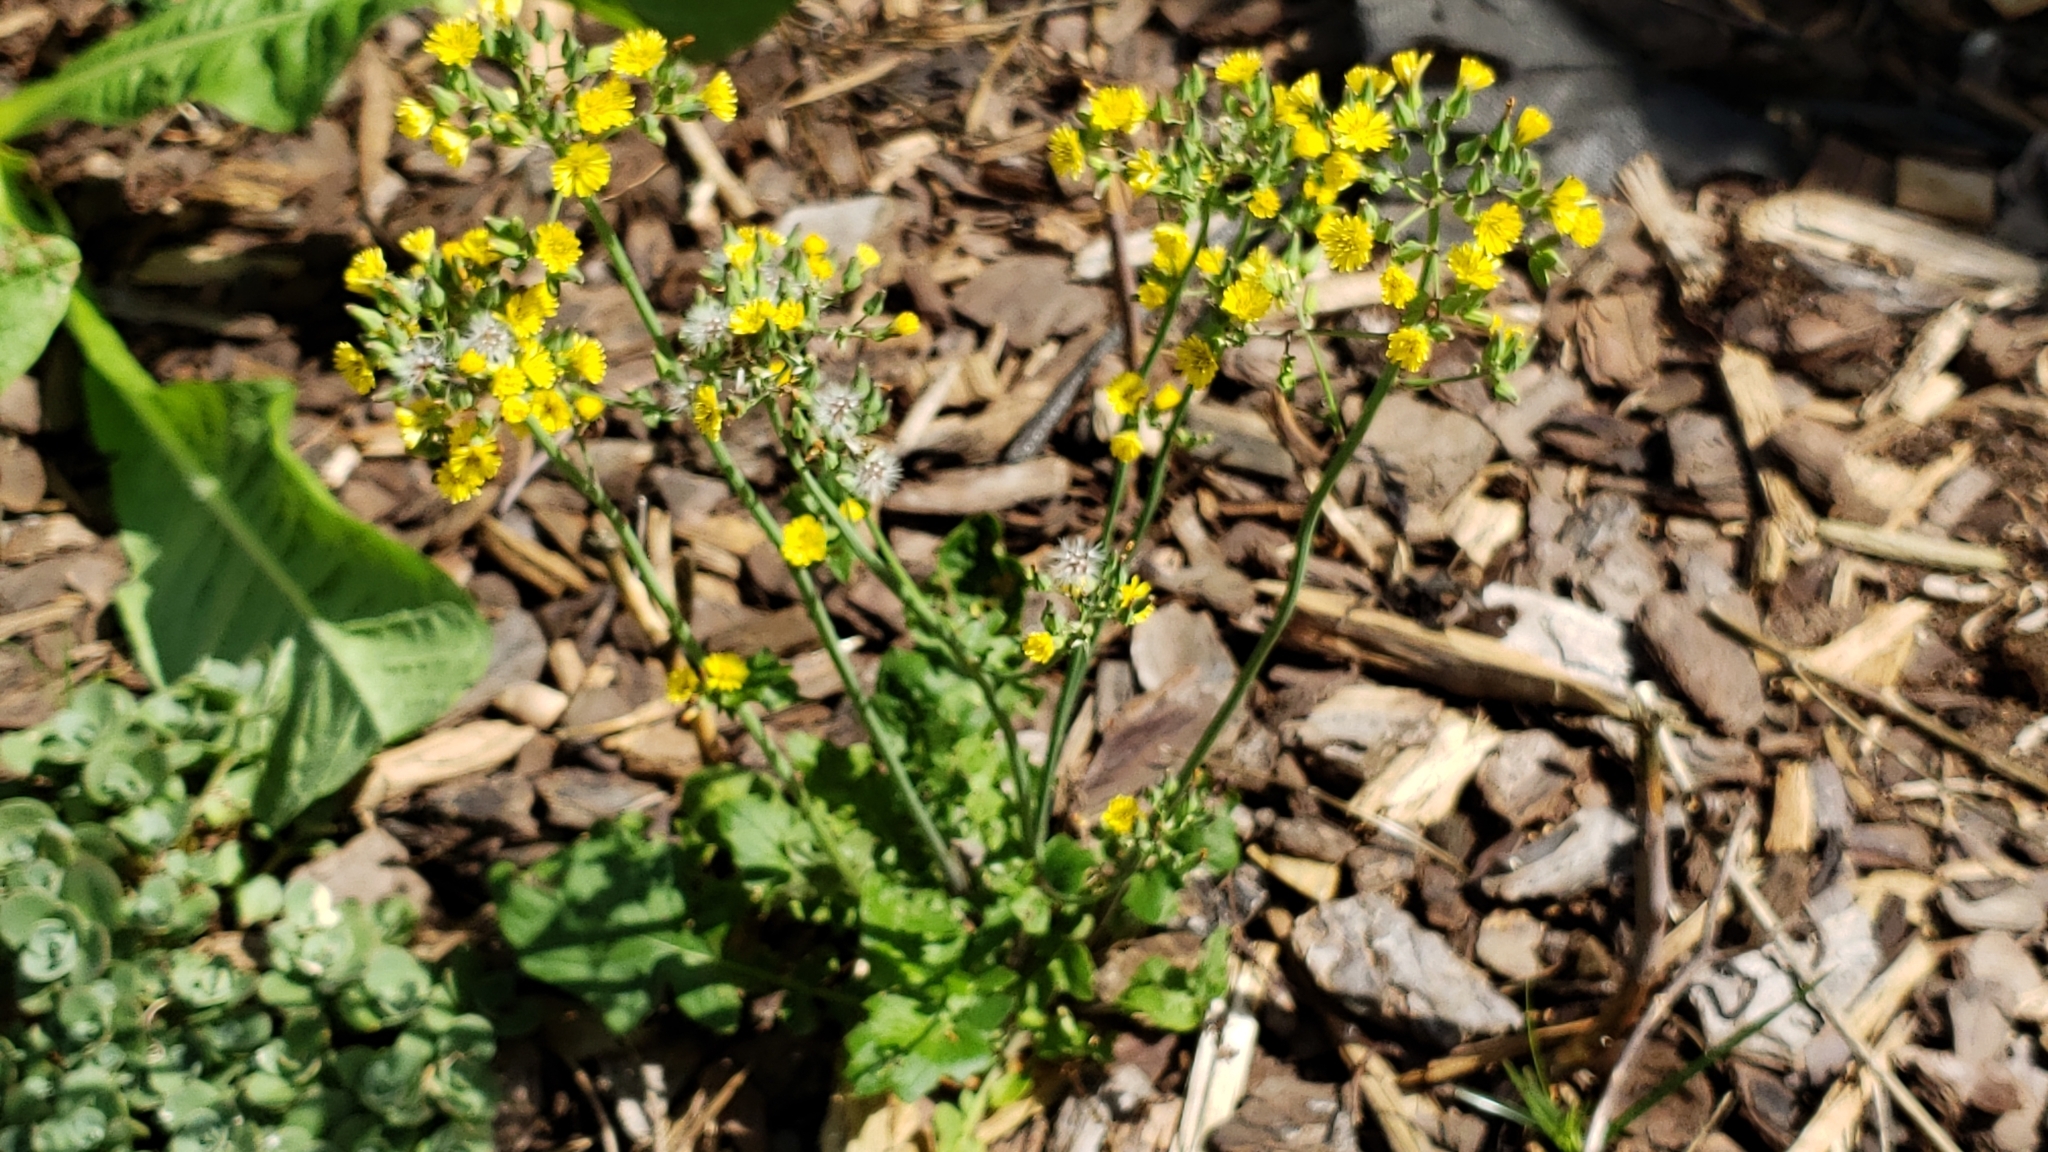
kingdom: Plantae
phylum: Tracheophyta
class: Magnoliopsida
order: Asterales
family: Asteraceae
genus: Youngia
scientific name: Youngia japonica
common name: Oriental false hawksbeard
